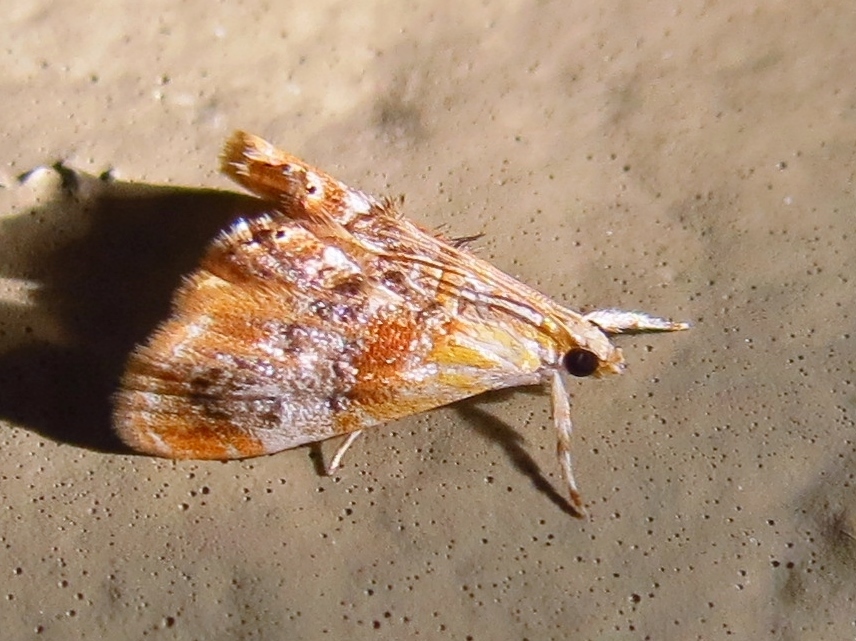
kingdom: Animalia
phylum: Arthropoda
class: Insecta
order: Lepidoptera
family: Crambidae
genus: Dicymolomia
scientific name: Dicymolomia julianalis
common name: Julia's dicymolomia moth
